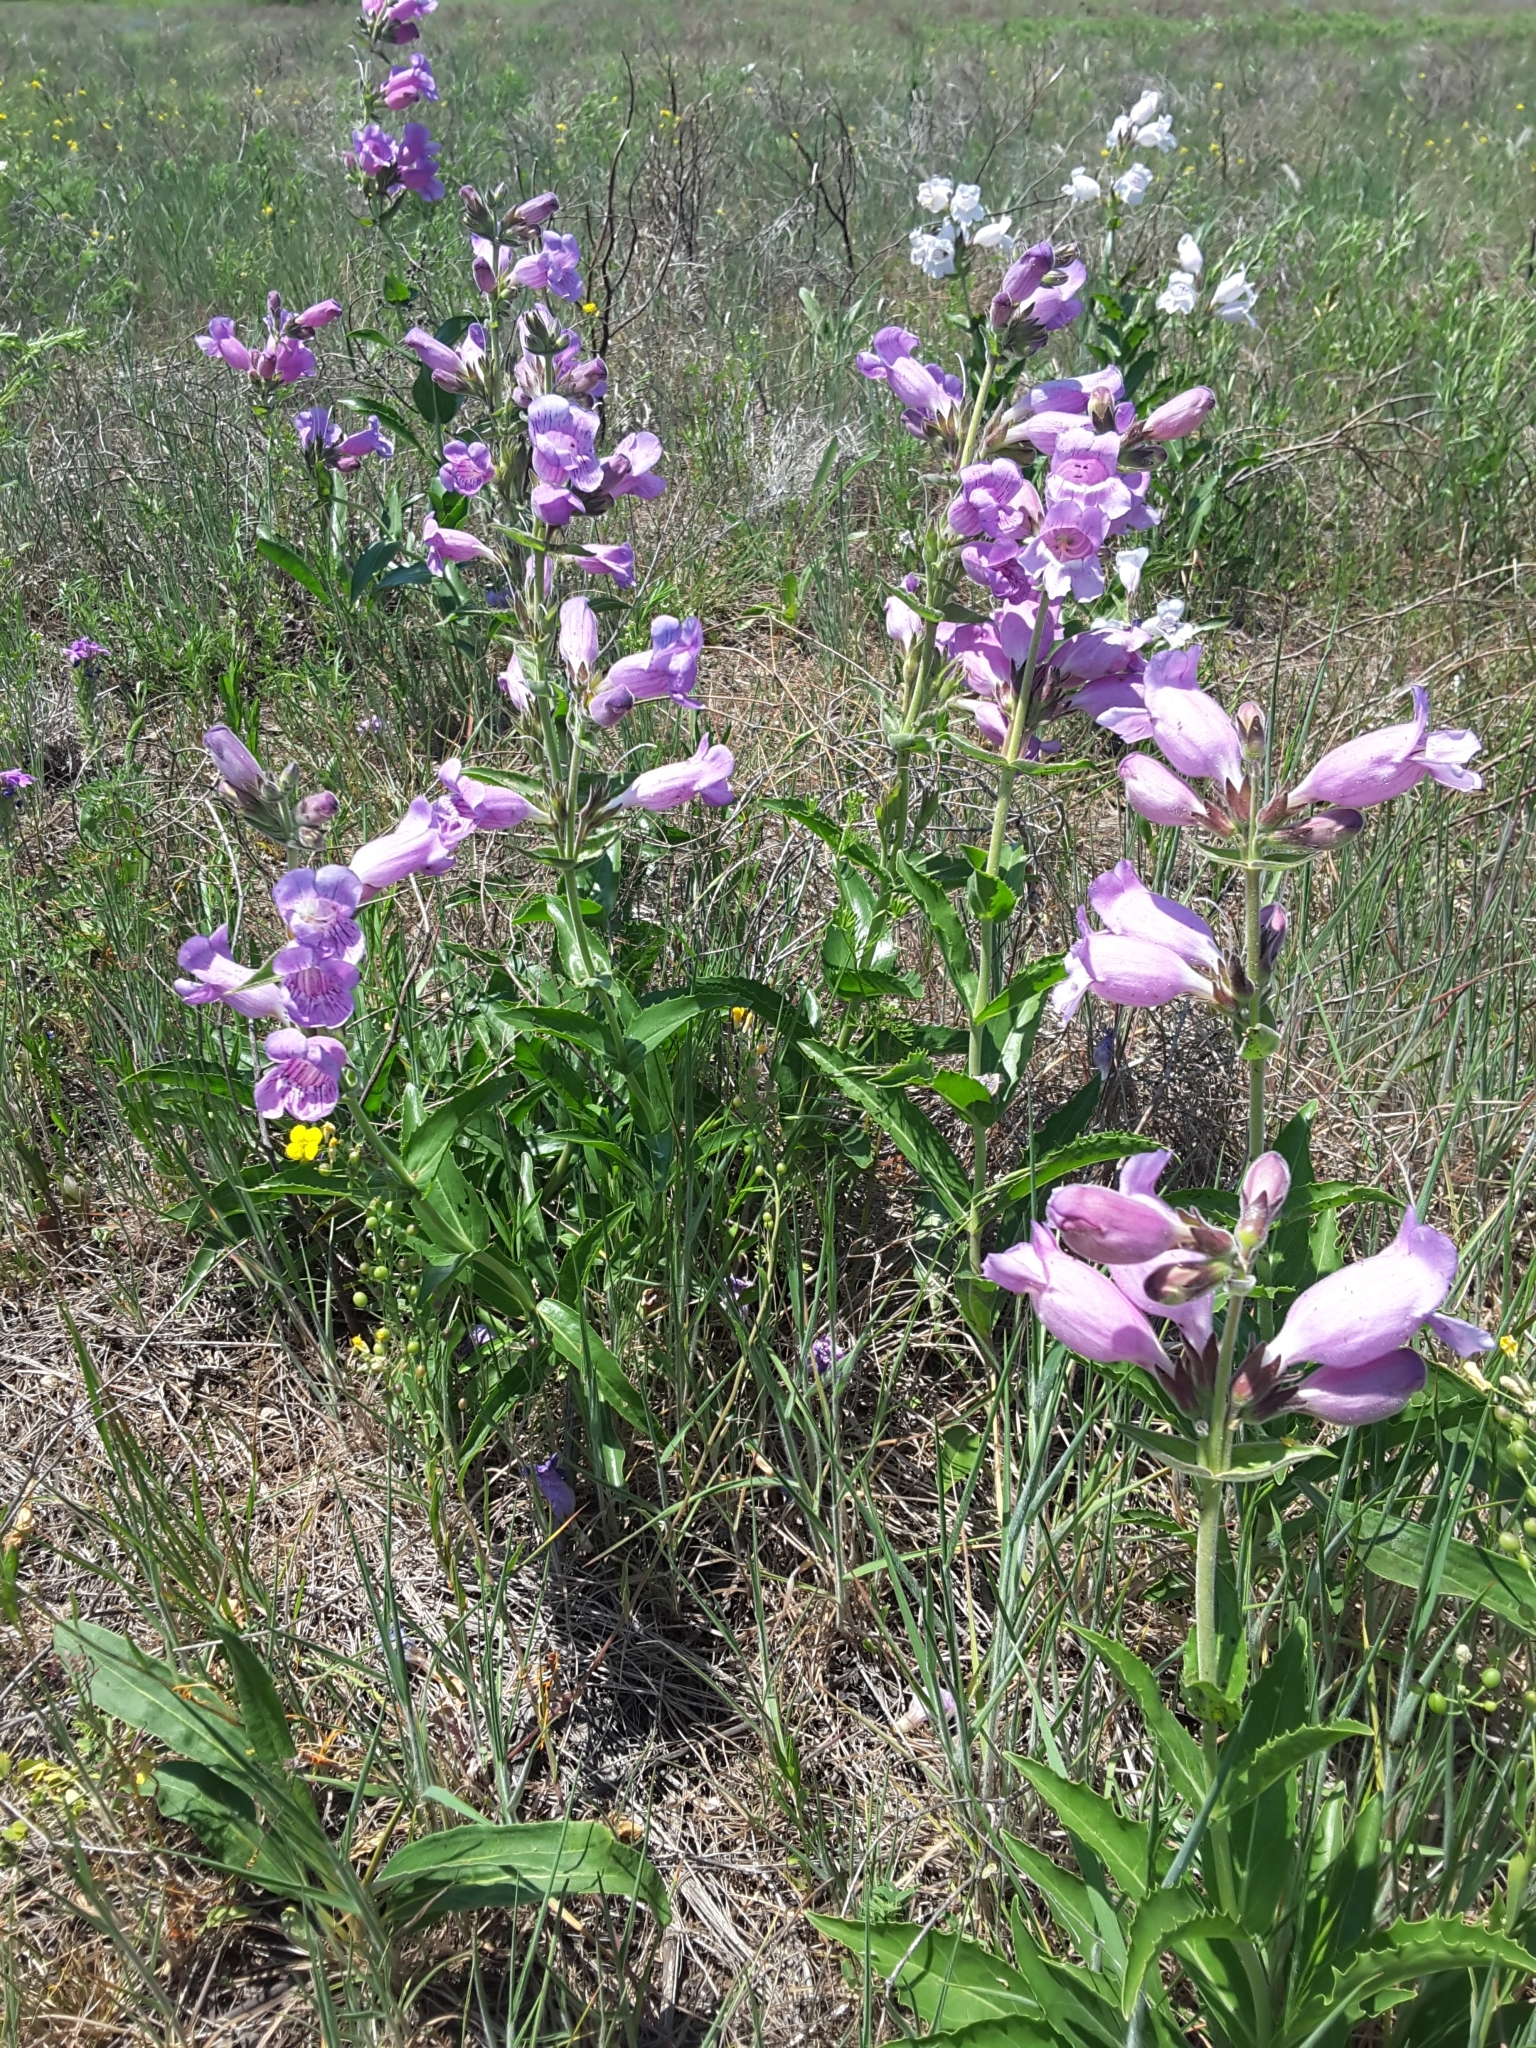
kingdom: Plantae
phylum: Tracheophyta
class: Magnoliopsida
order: Lamiales
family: Plantaginaceae
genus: Penstemon
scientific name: Penstemon cobaea
